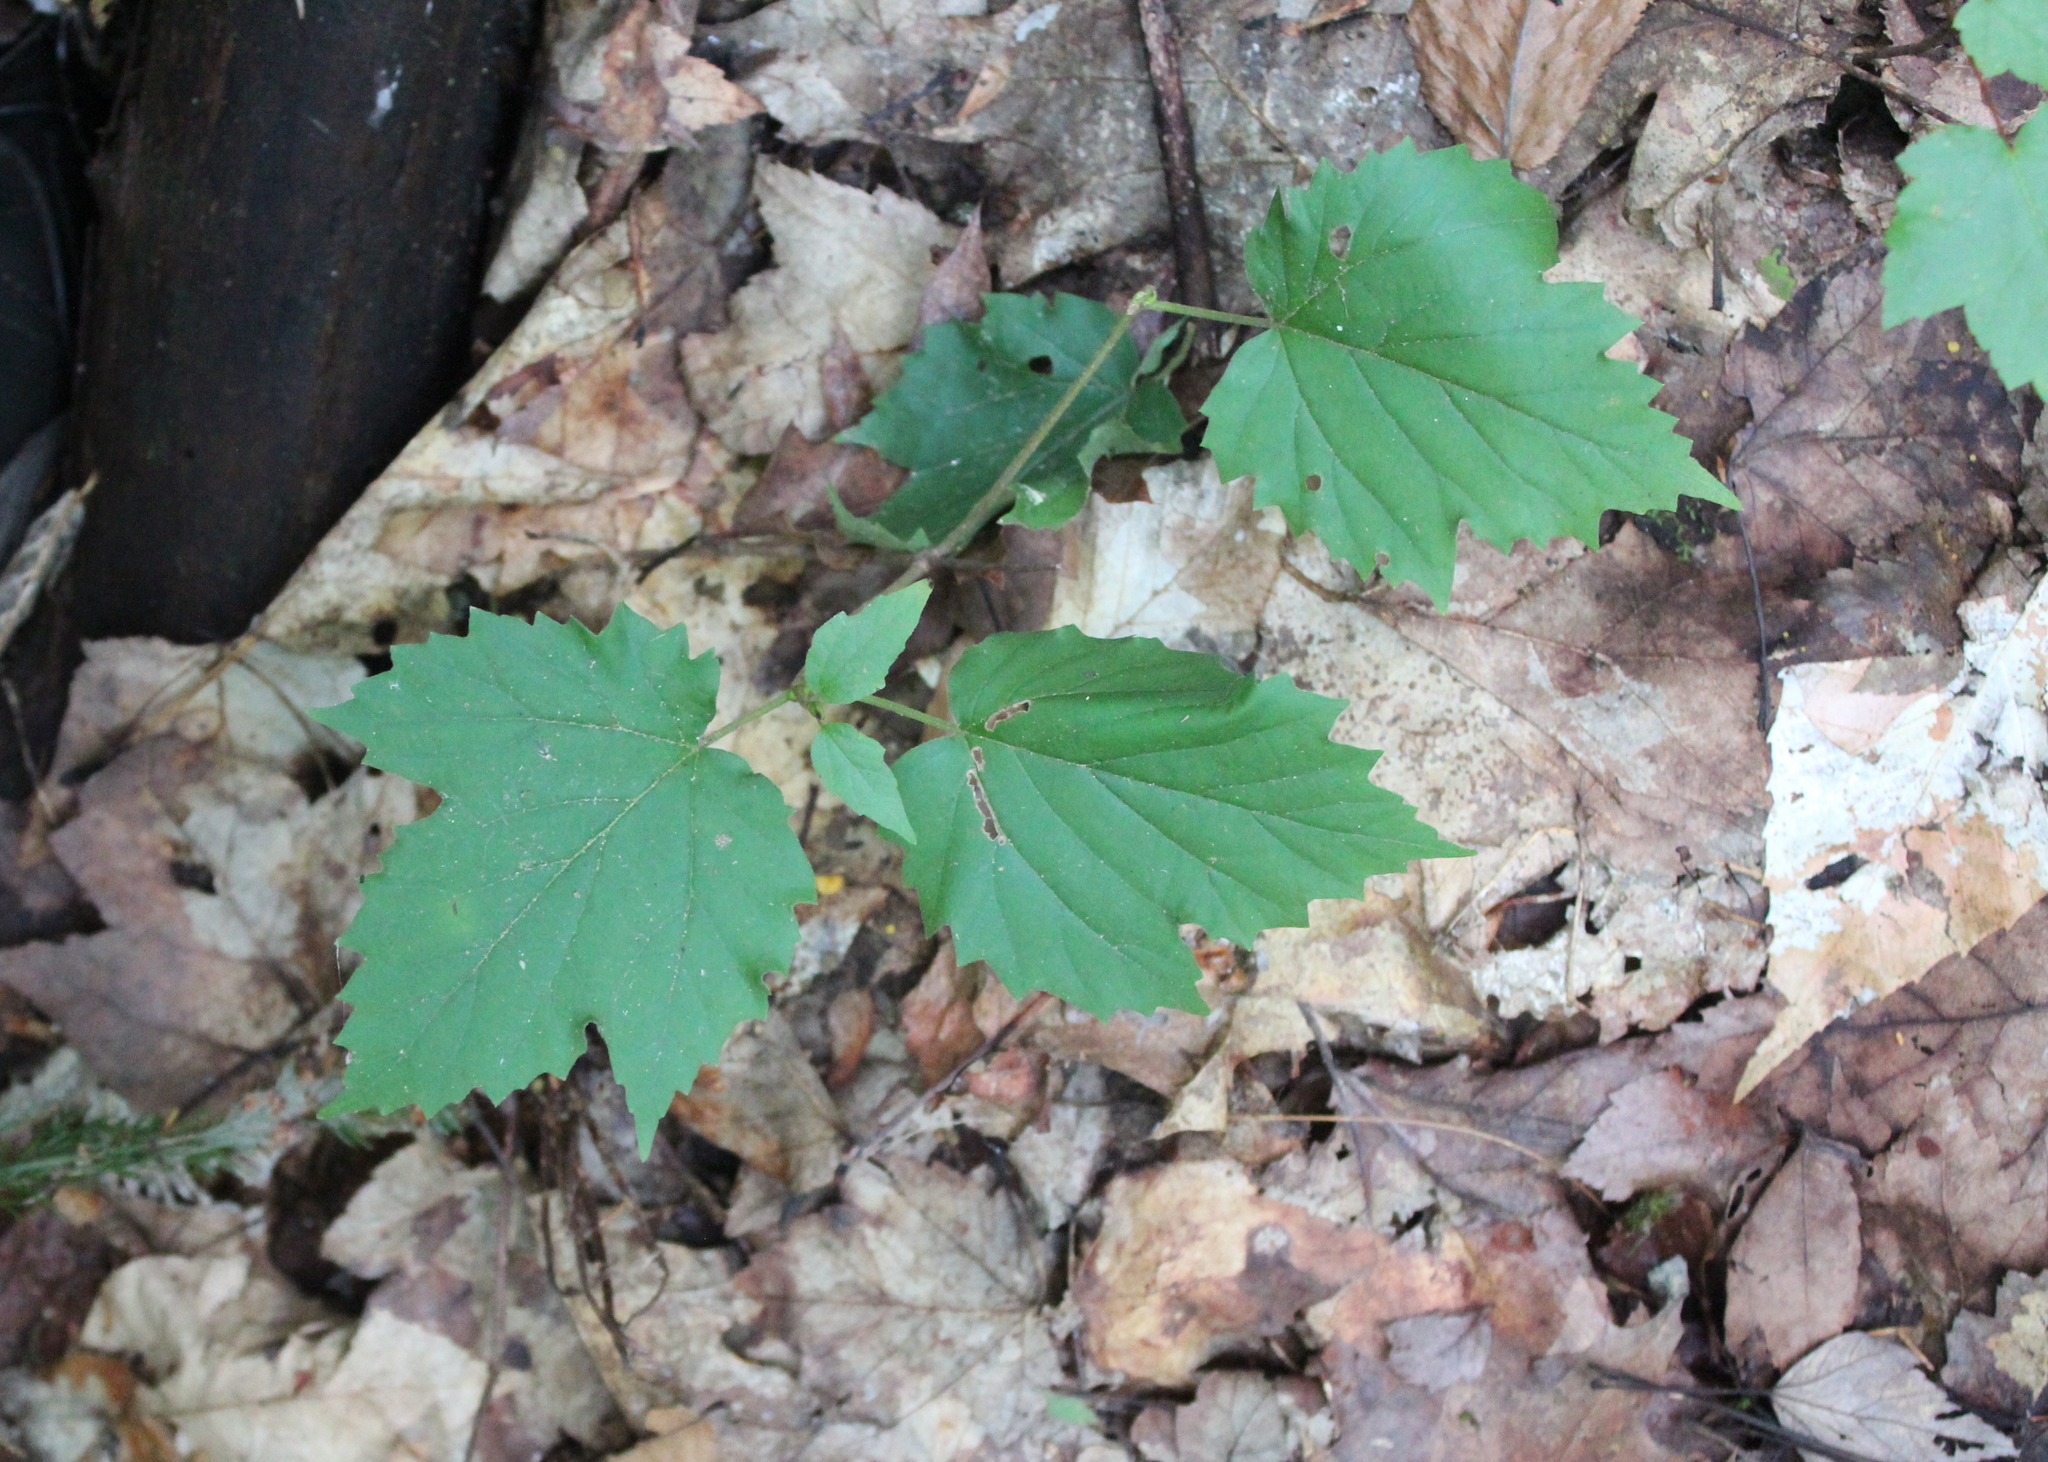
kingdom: Plantae
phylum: Tracheophyta
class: Magnoliopsida
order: Dipsacales
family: Viburnaceae
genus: Viburnum
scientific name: Viburnum acerifolium
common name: Dockmackie
